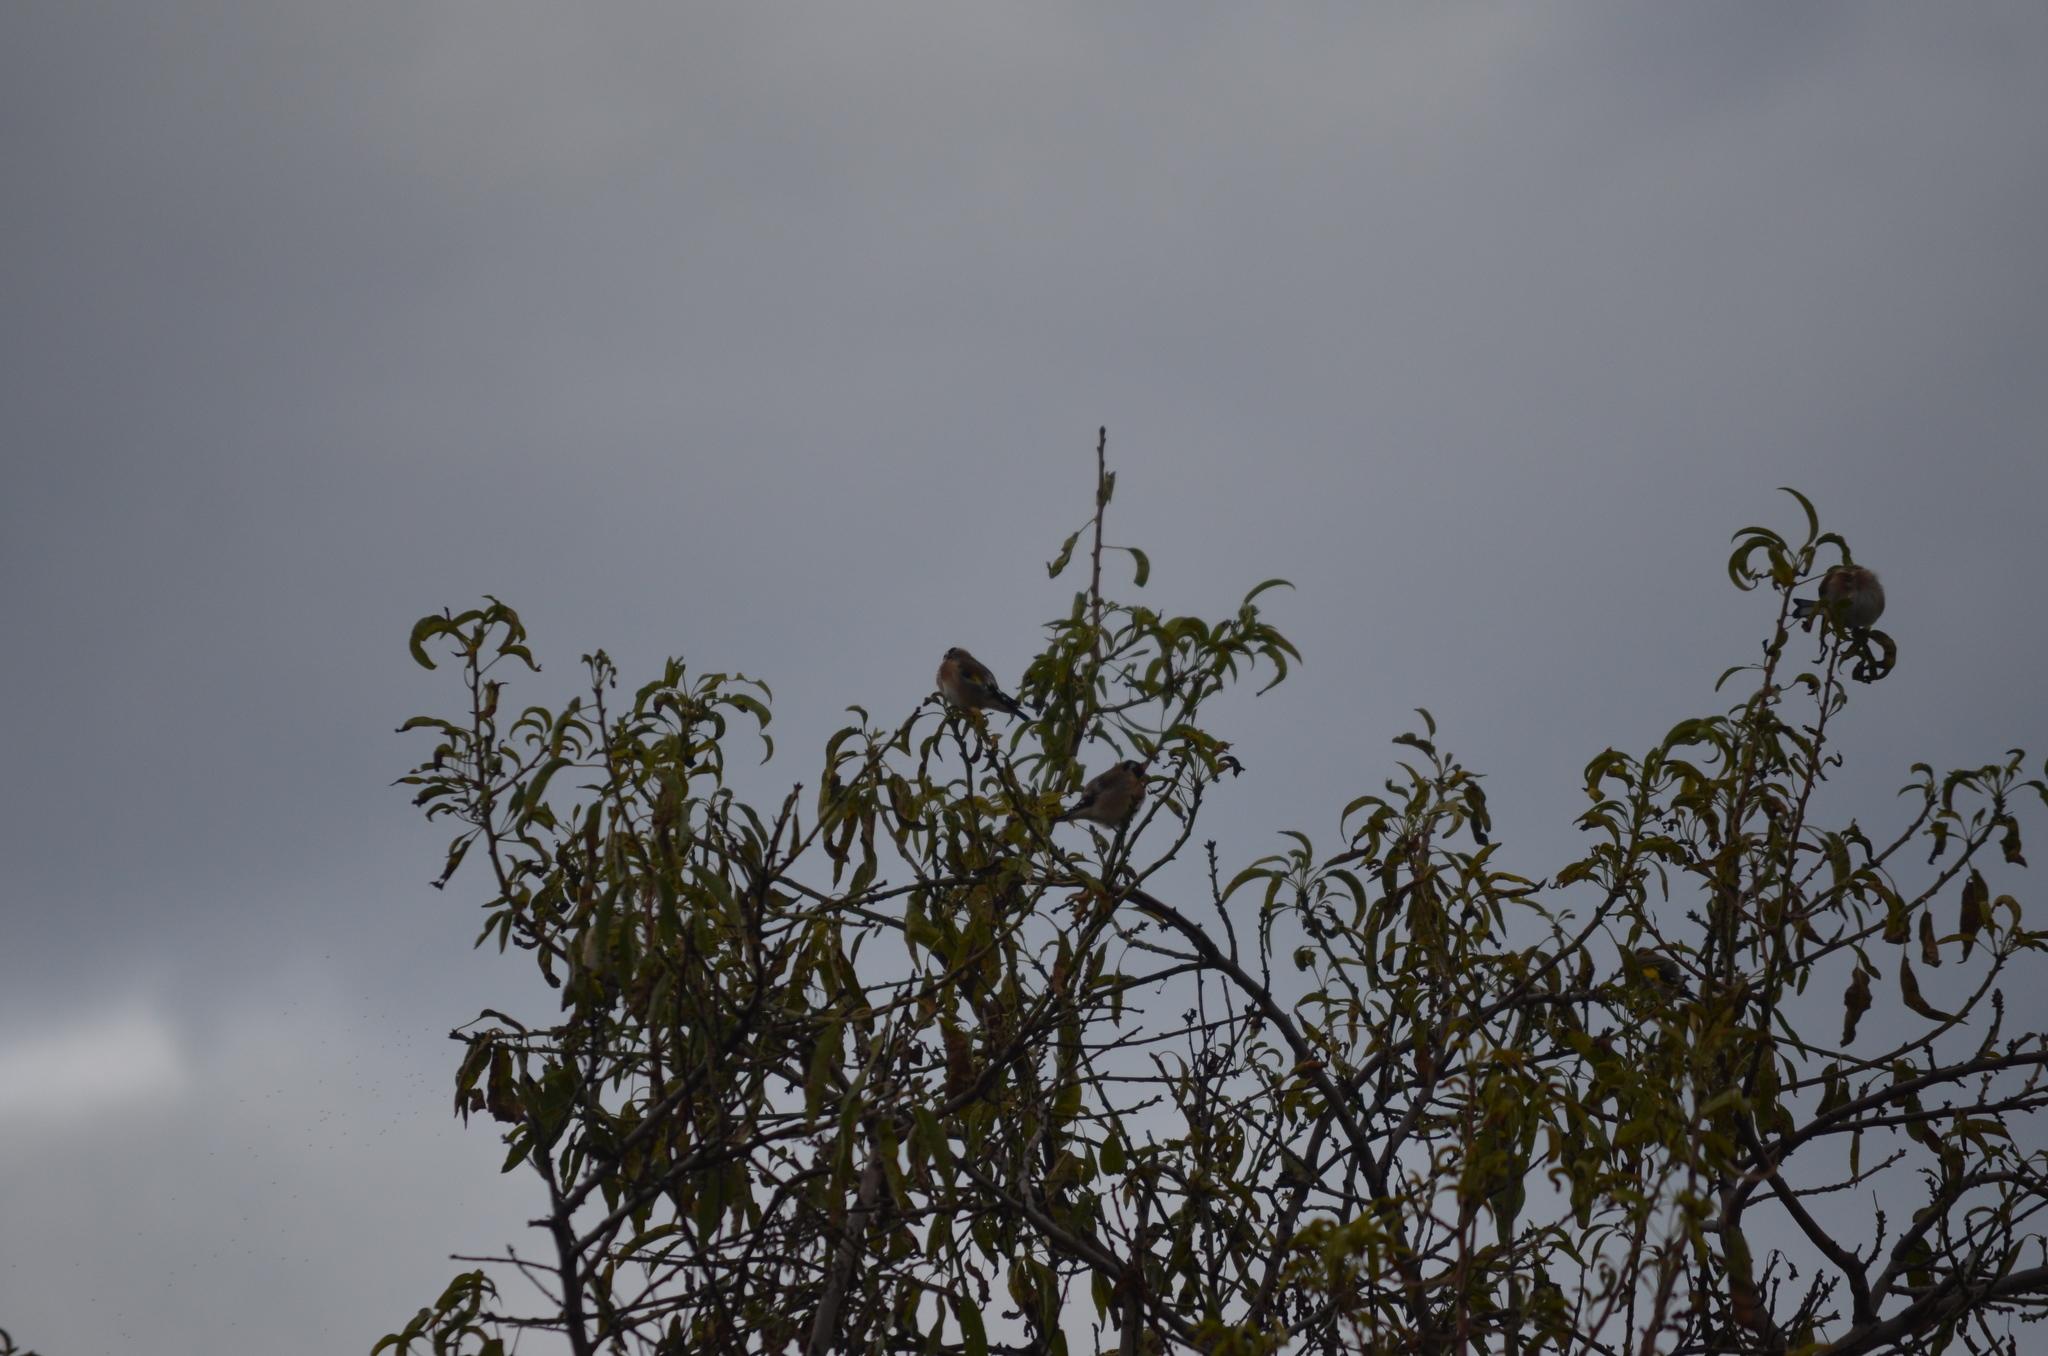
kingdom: Animalia
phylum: Chordata
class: Aves
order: Passeriformes
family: Fringillidae
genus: Carduelis
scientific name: Carduelis carduelis
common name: European goldfinch
